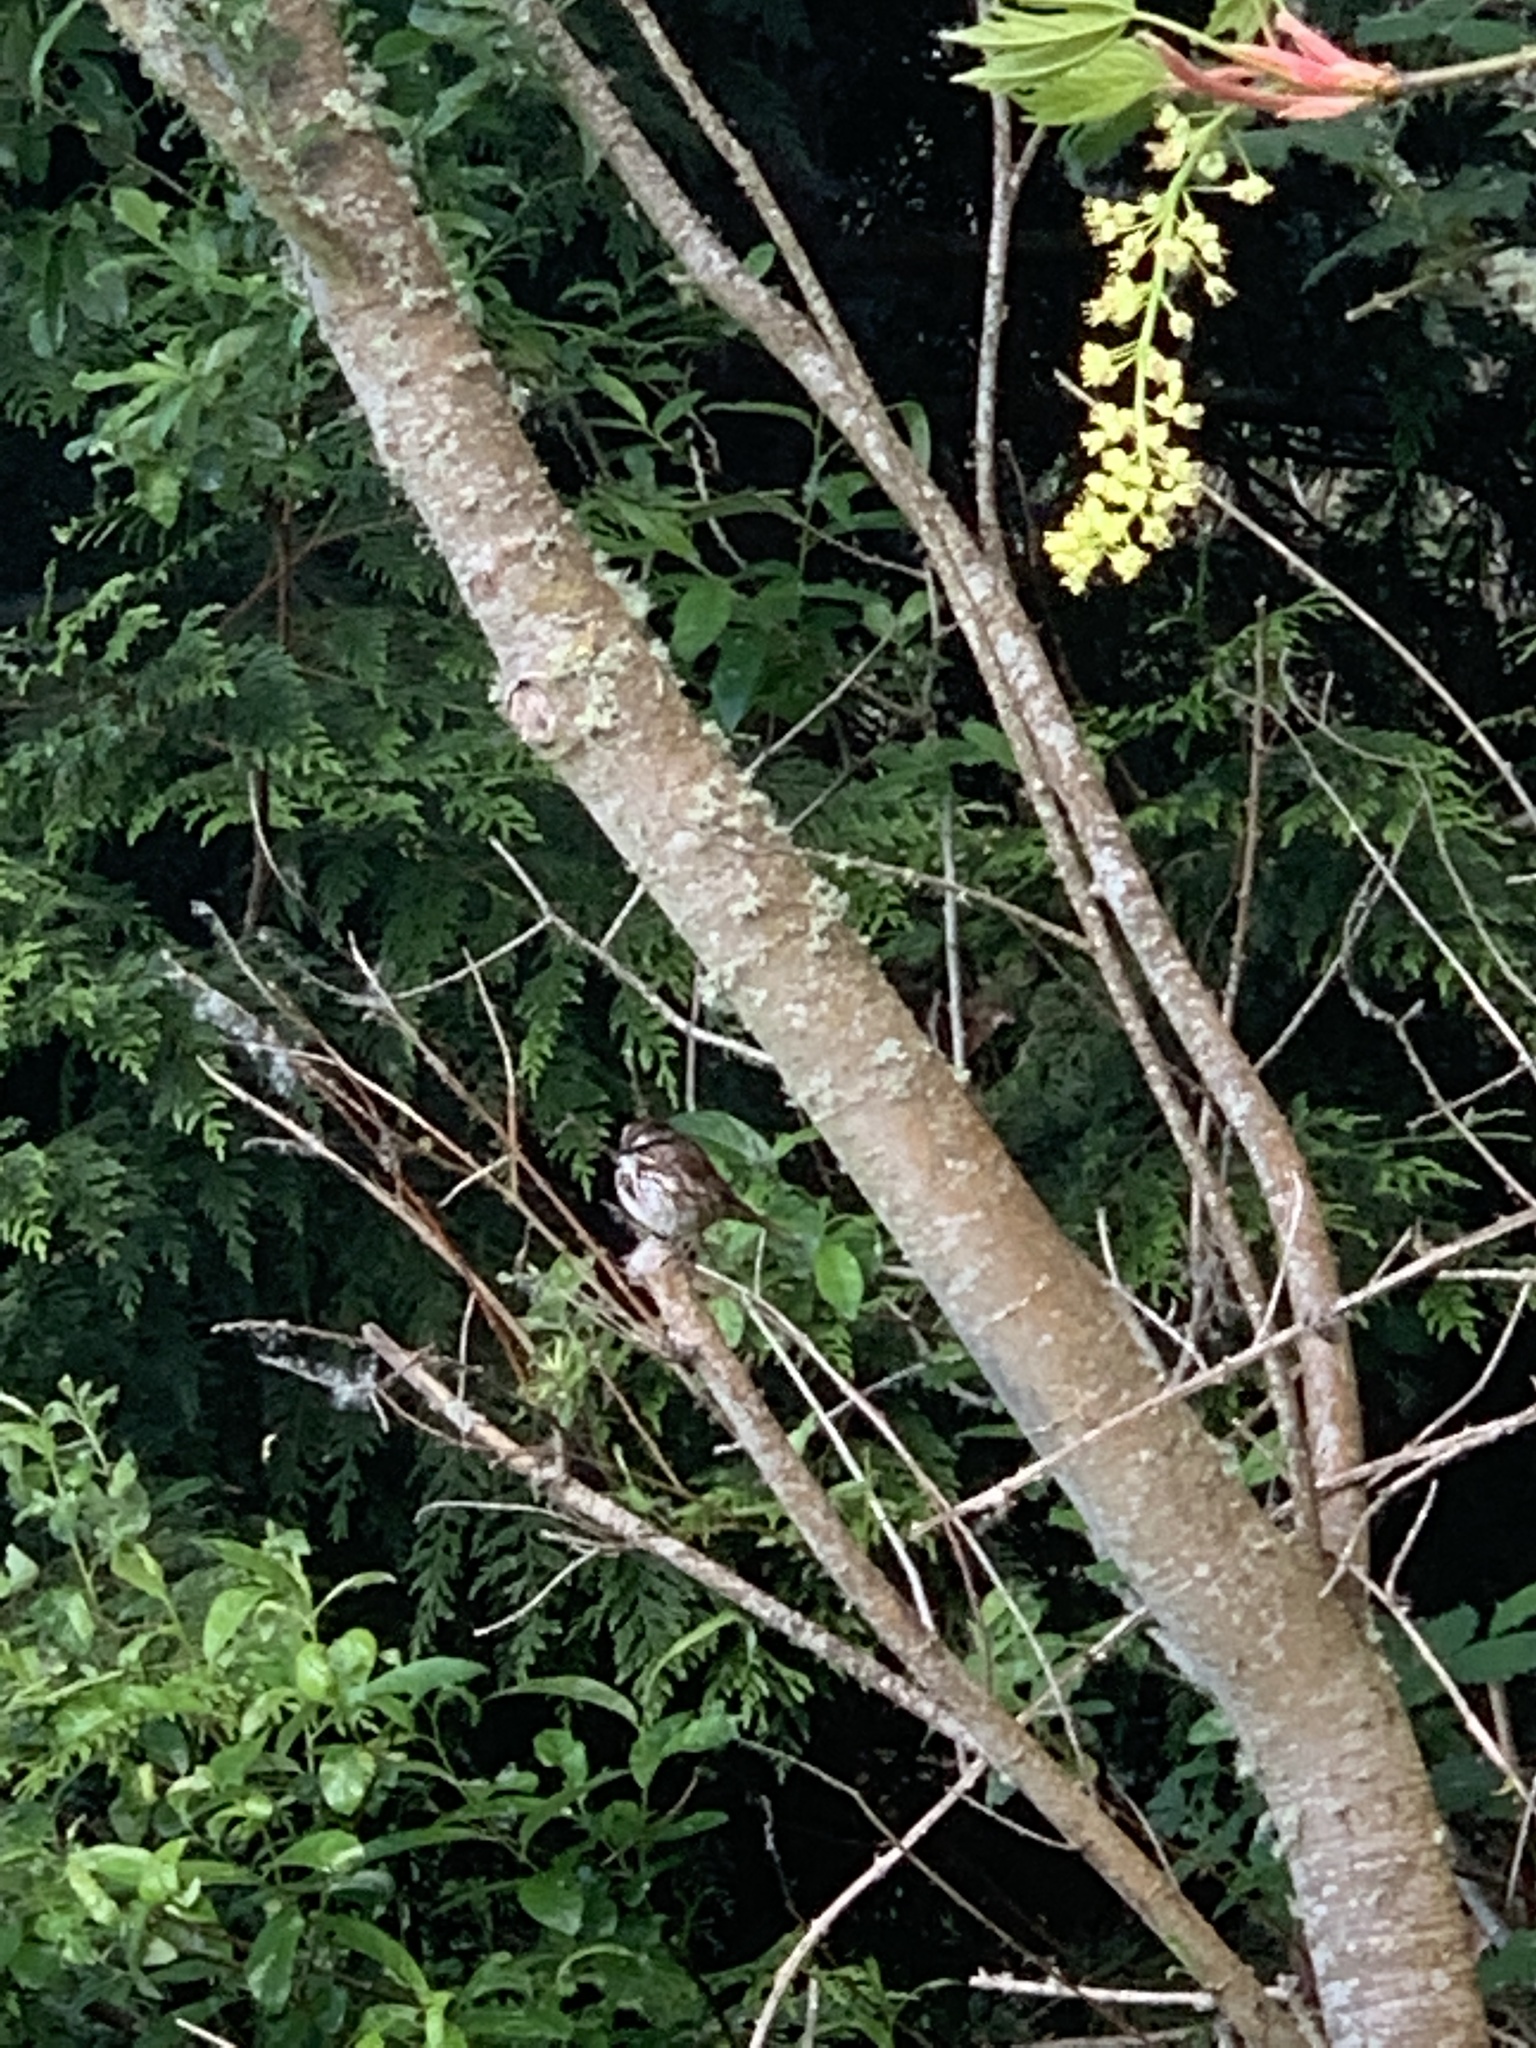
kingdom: Animalia
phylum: Chordata
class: Aves
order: Passeriformes
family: Passerellidae
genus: Melospiza
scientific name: Melospiza melodia
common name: Song sparrow
